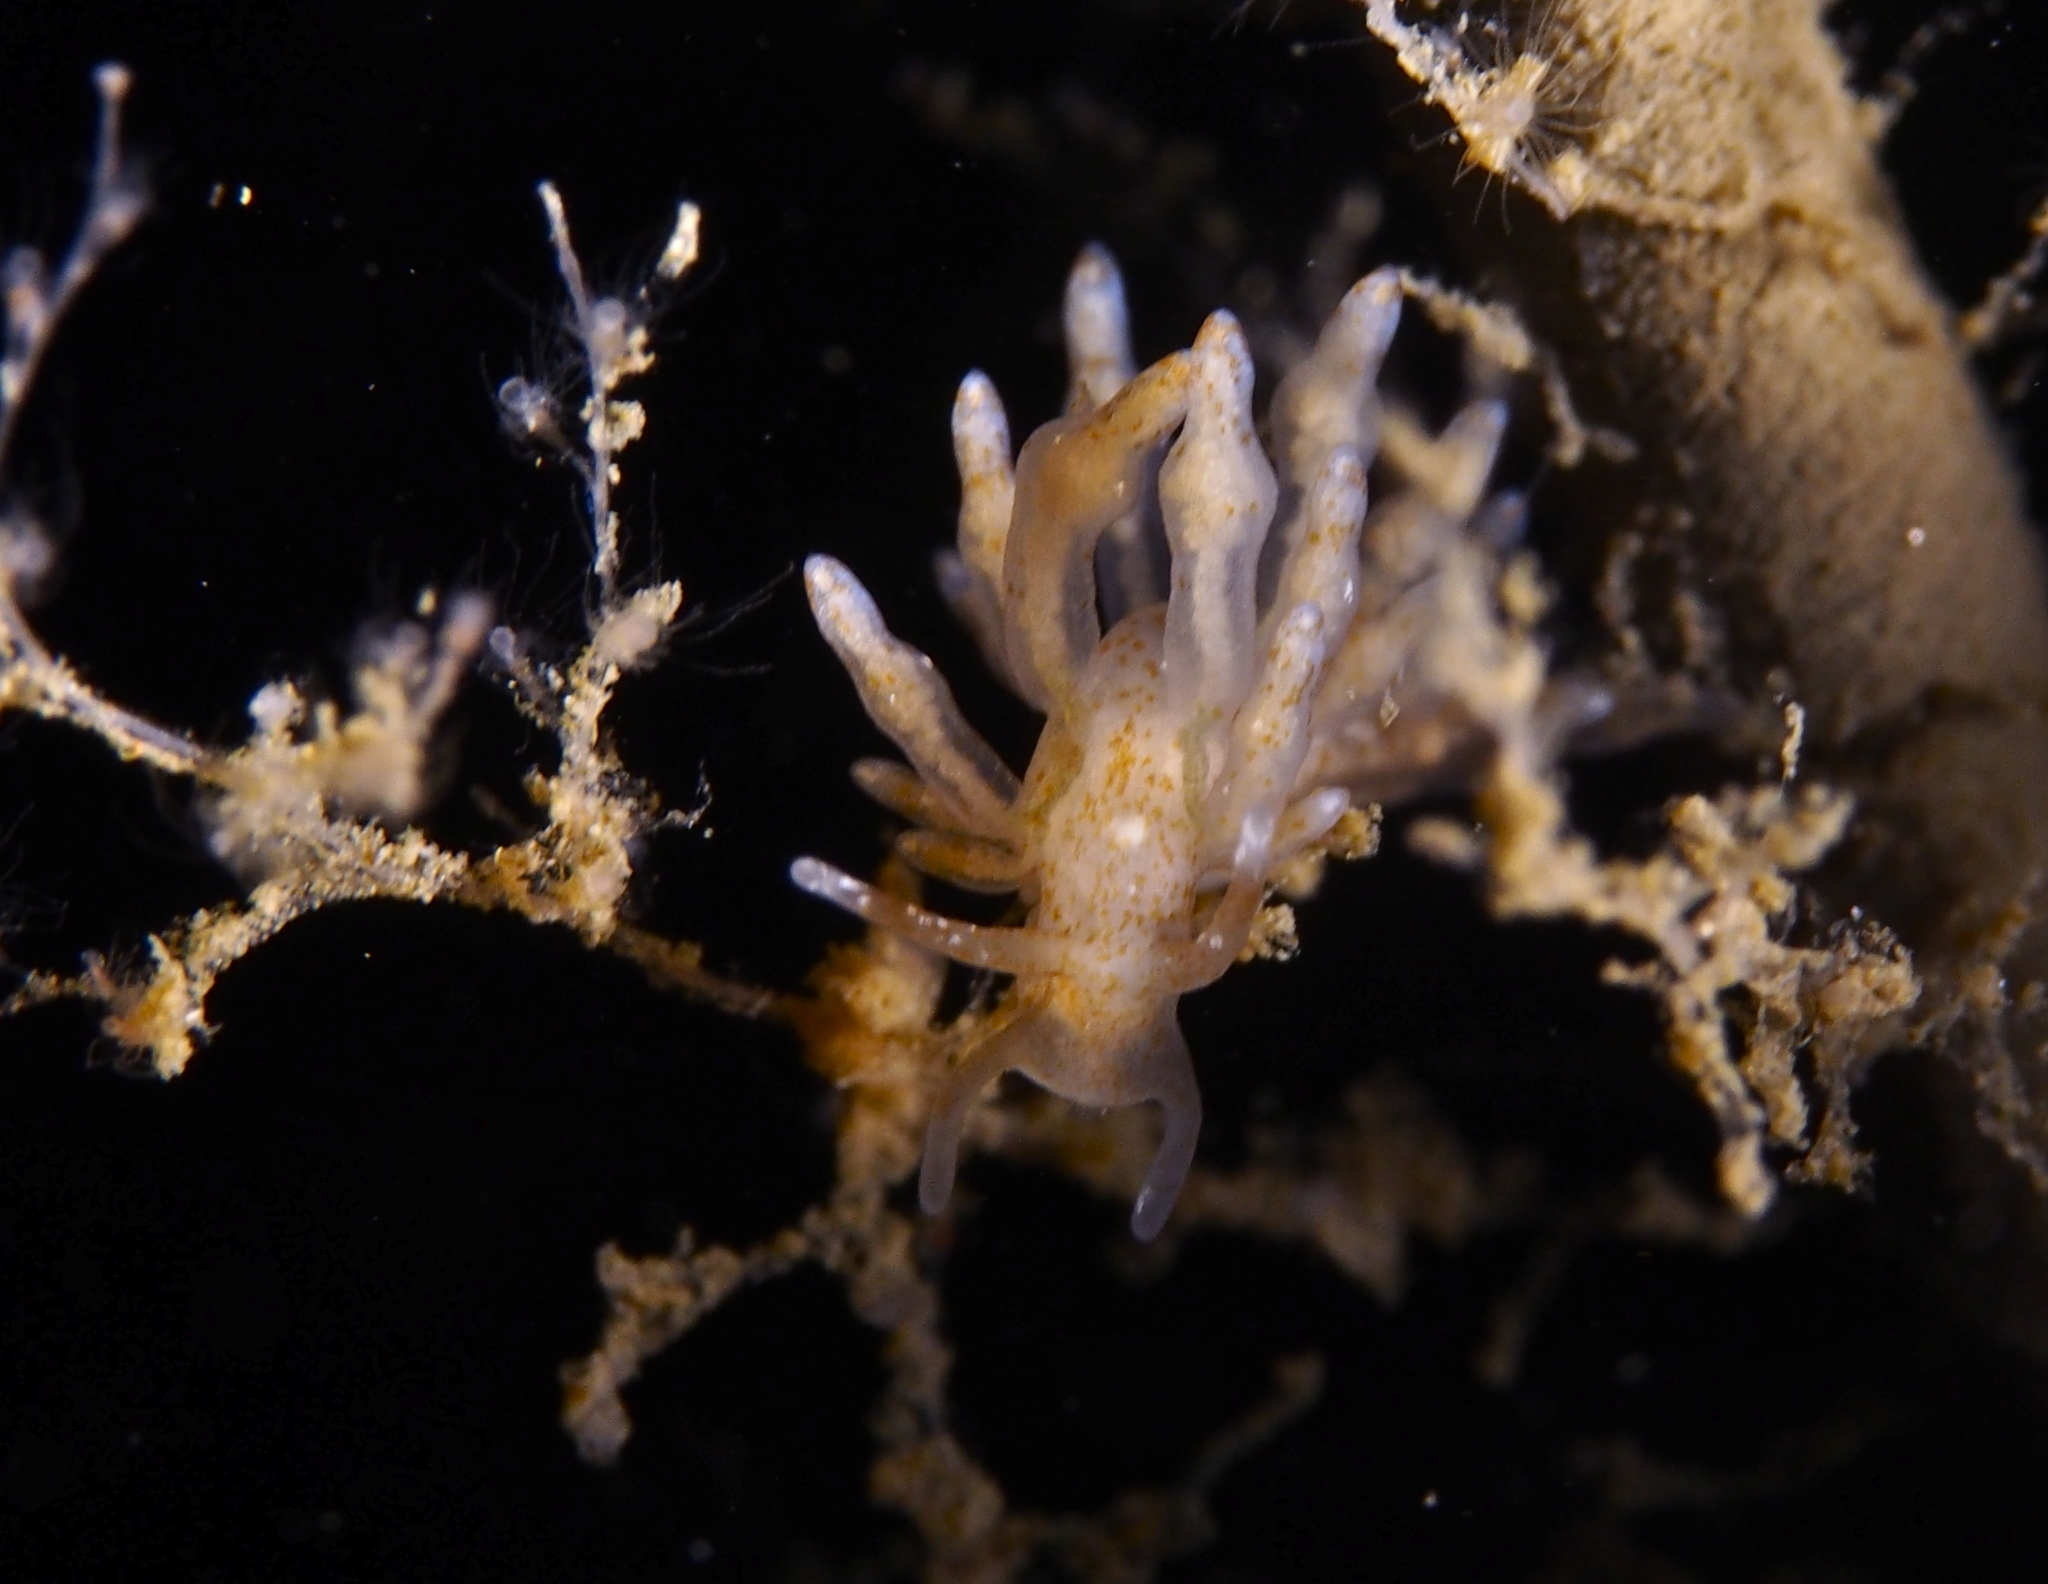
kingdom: Animalia
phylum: Mollusca
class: Gastropoda
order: Nudibranchia
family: Eubranchidae
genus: Eubranchus
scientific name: Eubranchus exiguus
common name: Balloon aeolis
